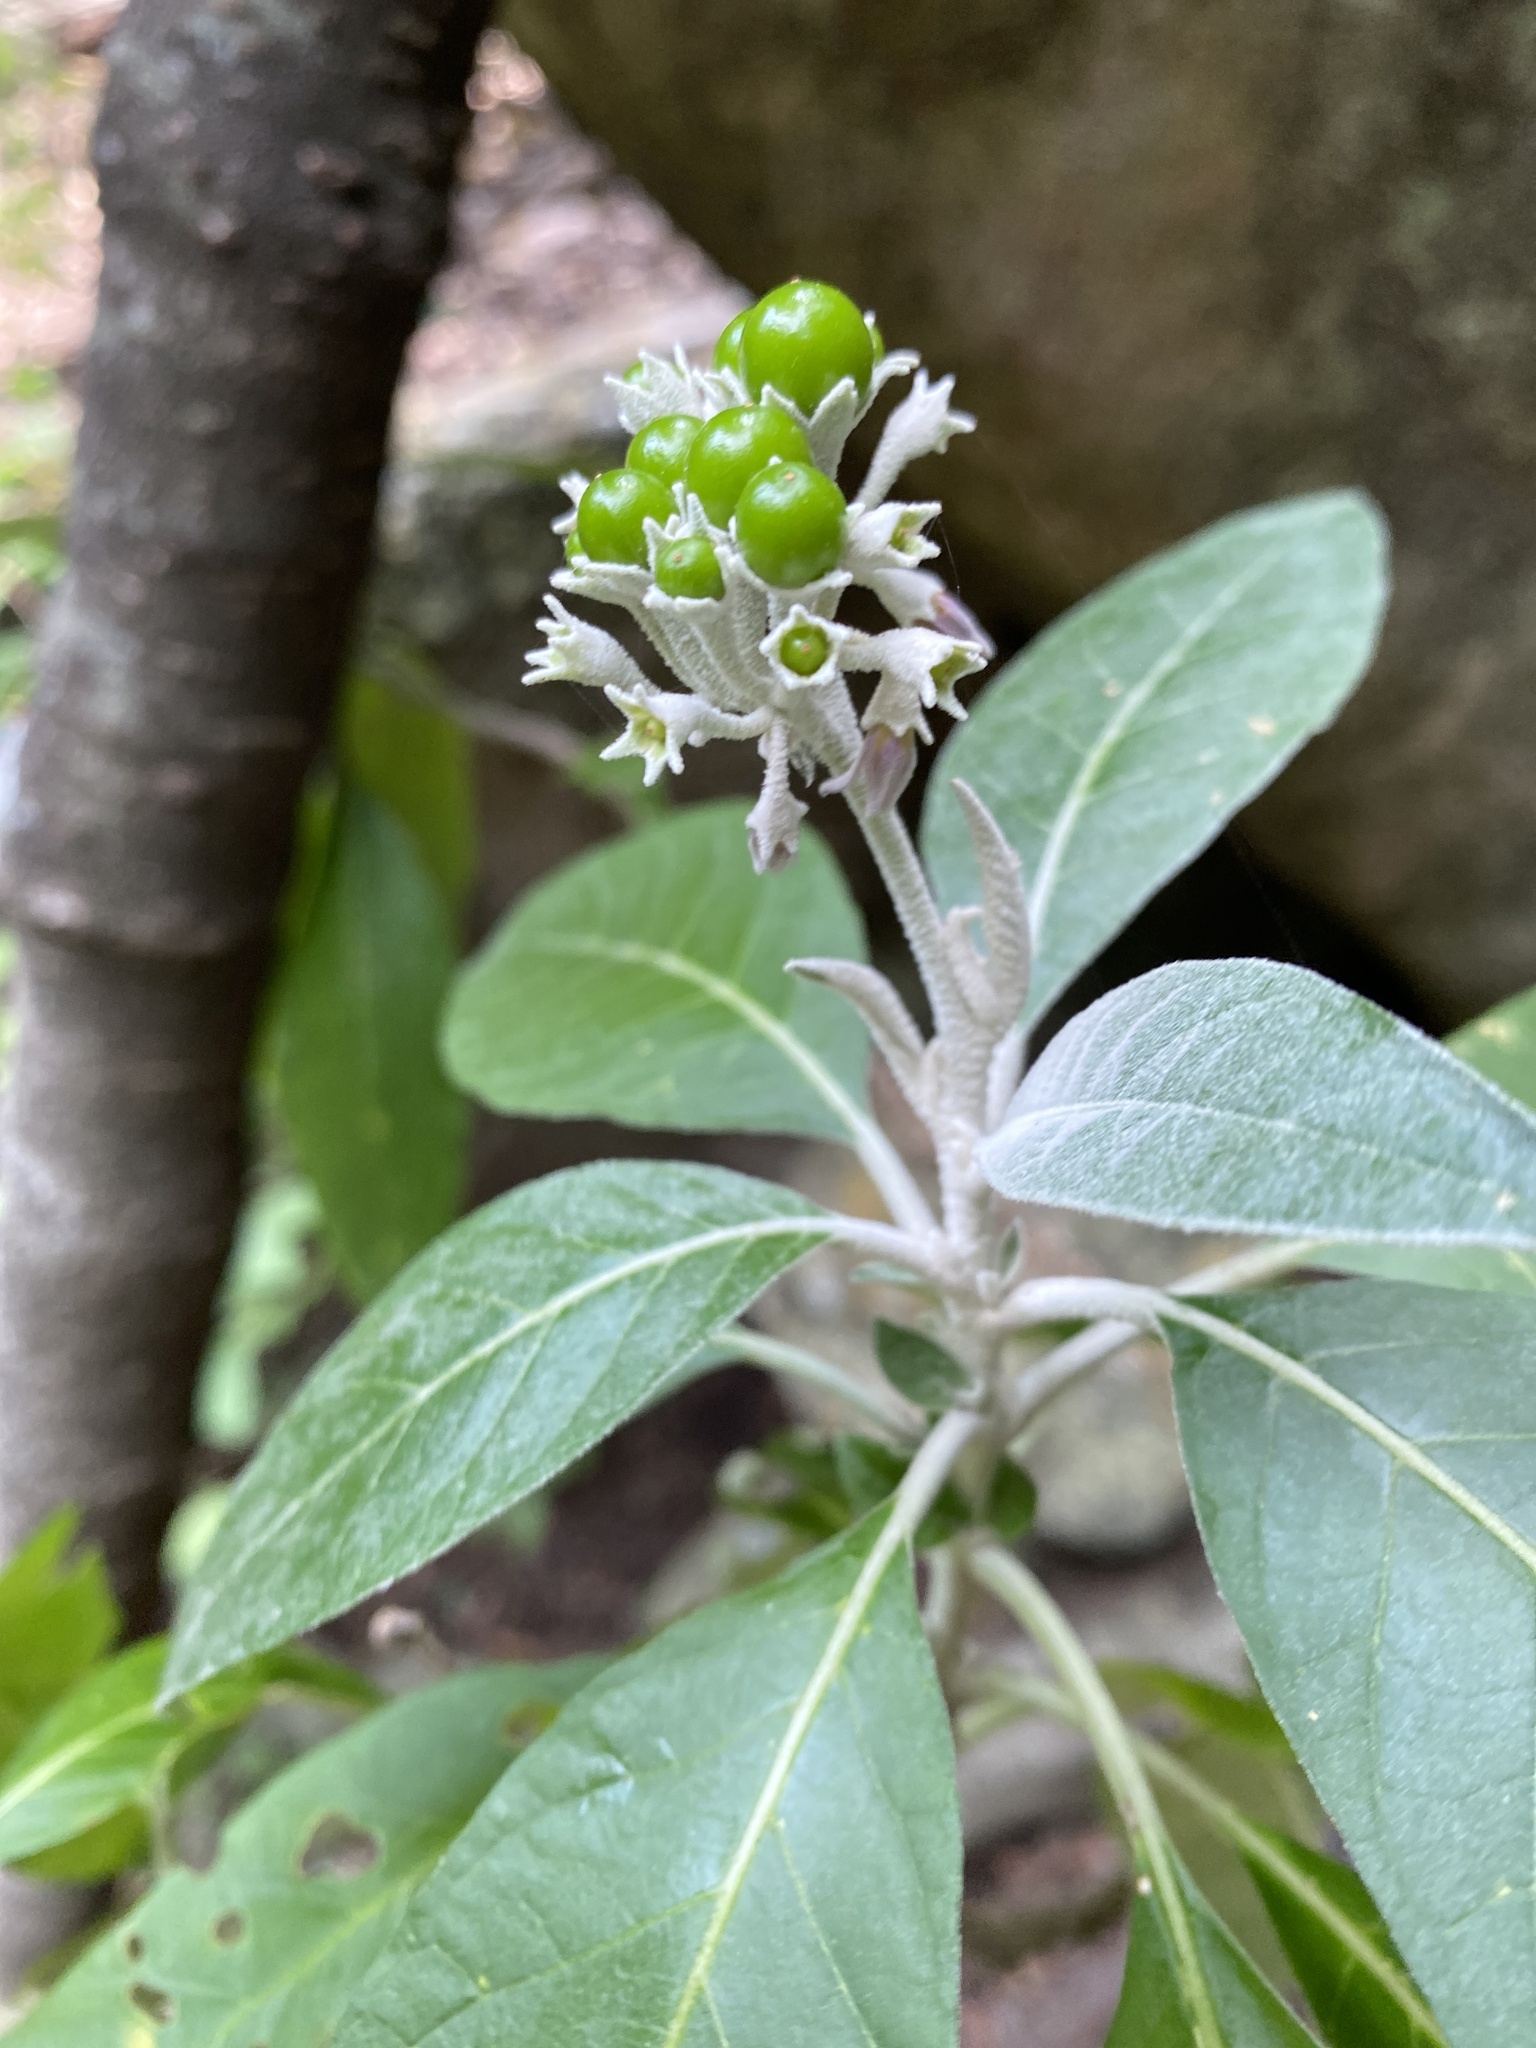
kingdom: Plantae
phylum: Tracheophyta
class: Magnoliopsida
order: Solanales
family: Solanaceae
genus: Solanum
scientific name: Solanum giganteum
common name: Healing-leaf-tree
